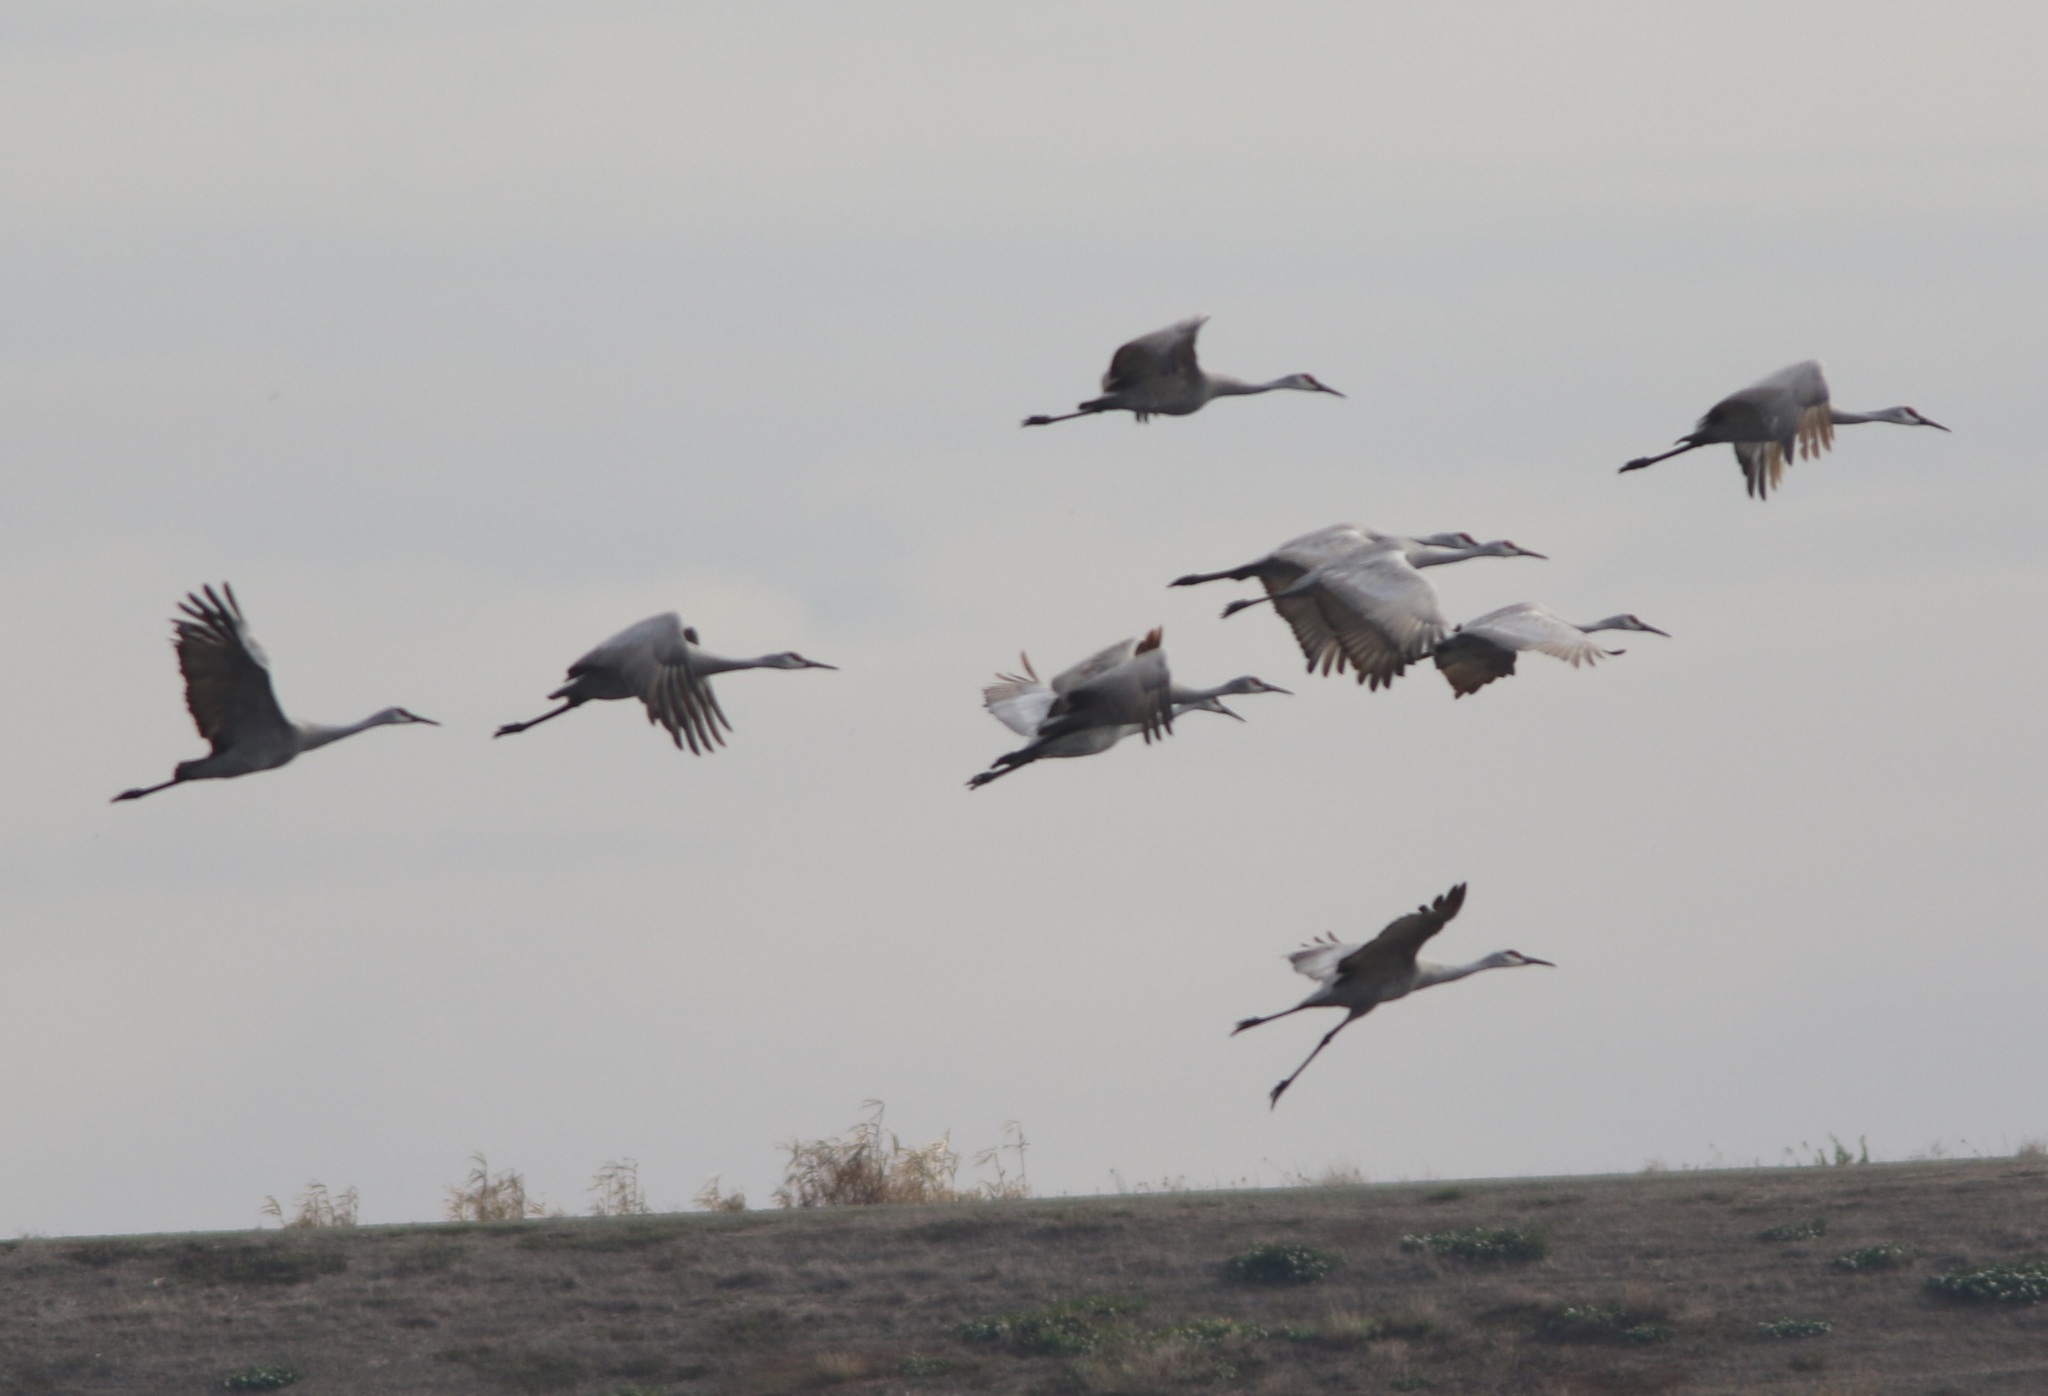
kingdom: Animalia
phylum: Chordata
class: Aves
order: Gruiformes
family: Gruidae
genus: Grus
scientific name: Grus canadensis
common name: Sandhill crane
